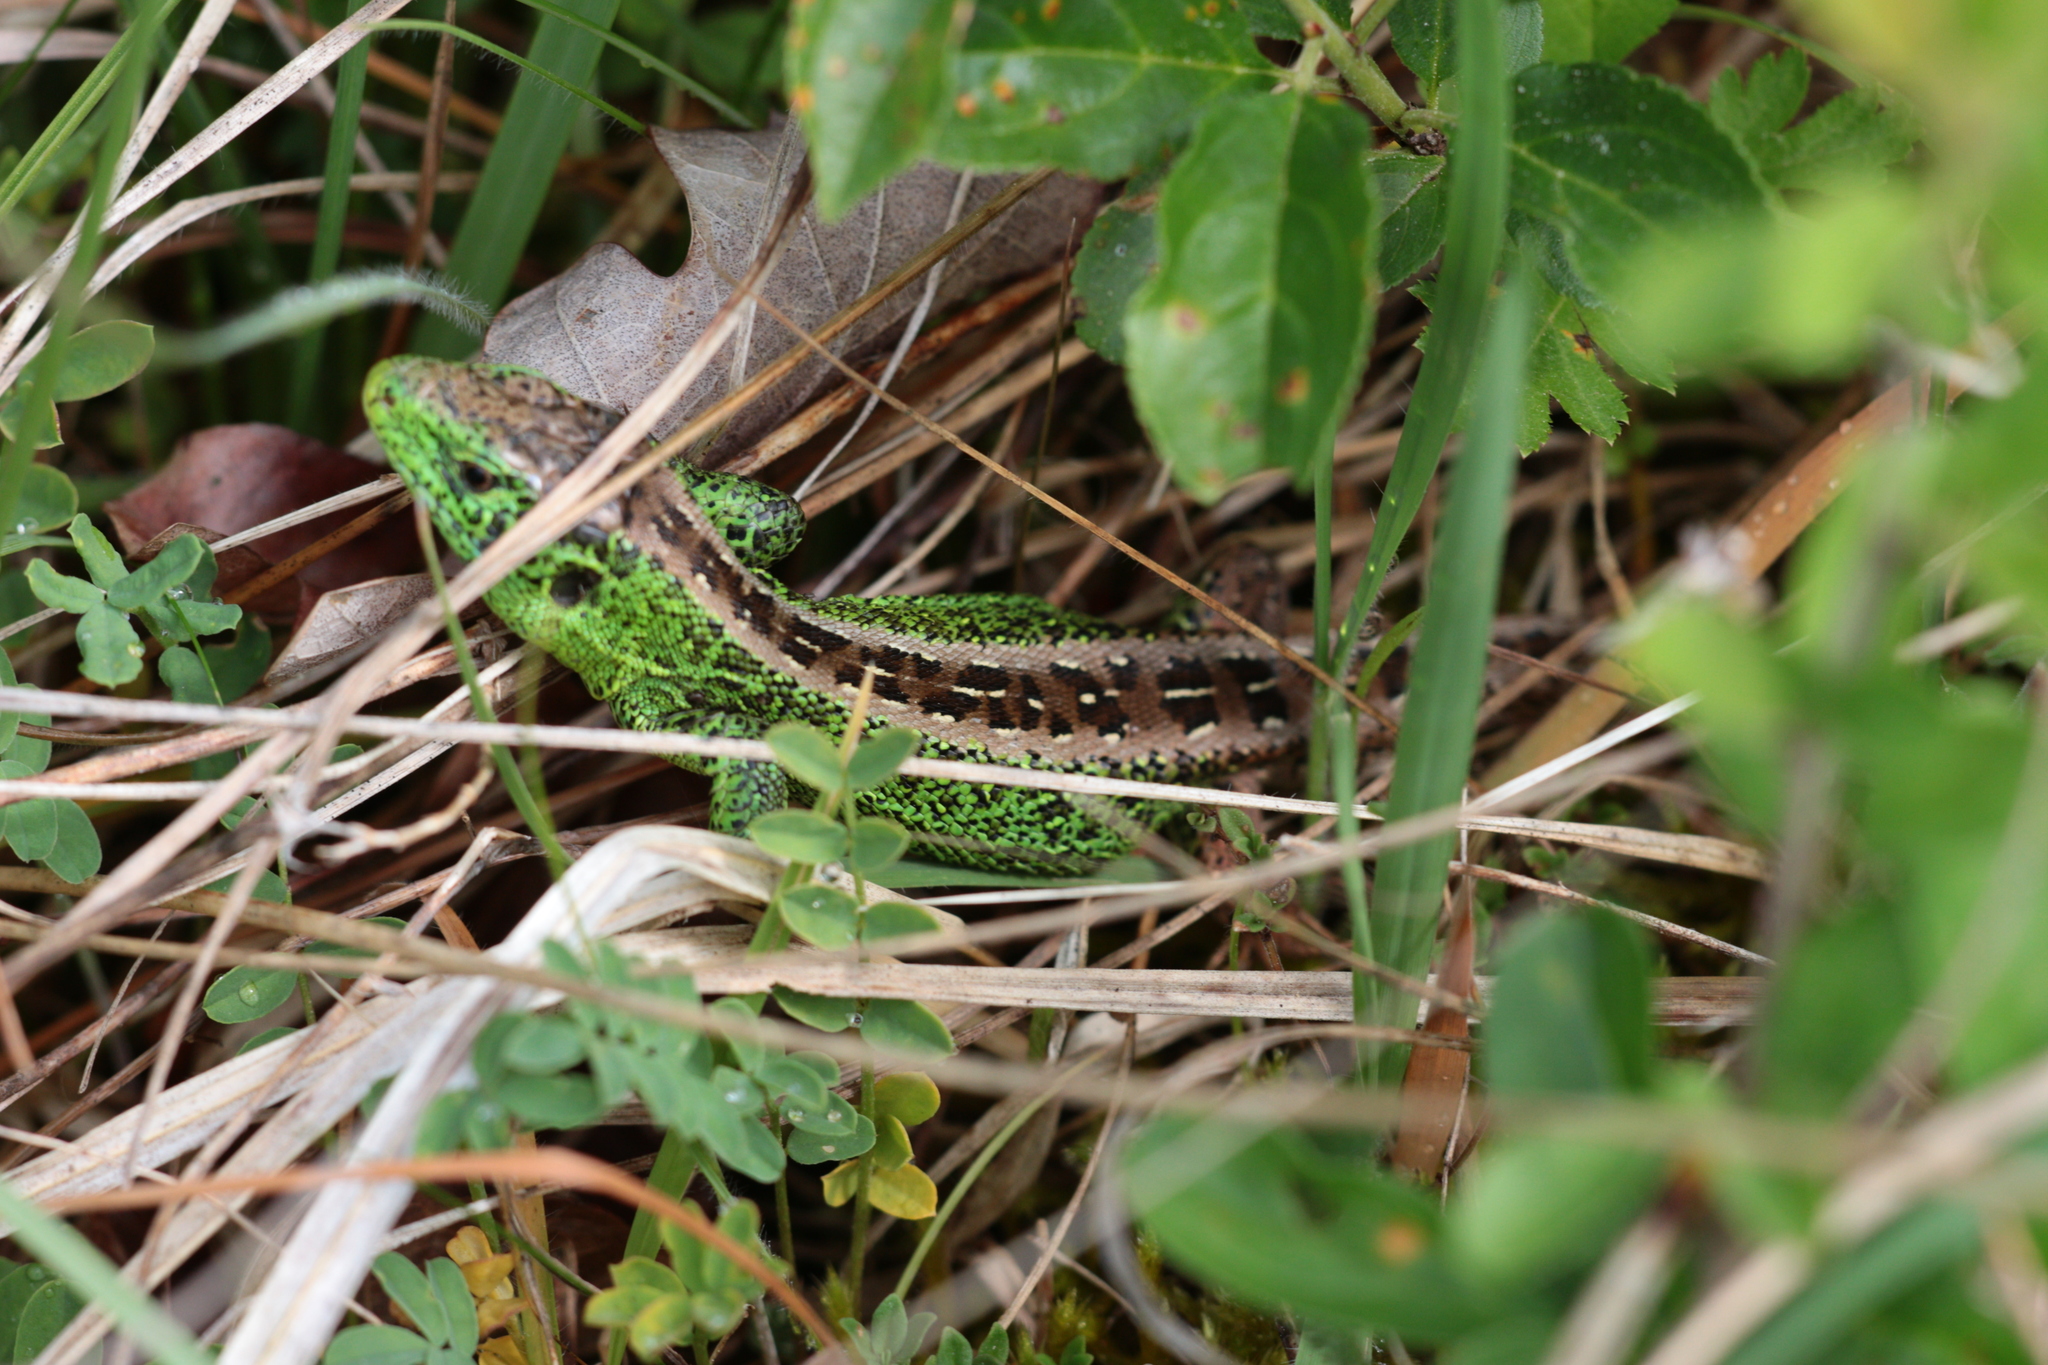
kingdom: Animalia
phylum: Chordata
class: Squamata
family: Lacertidae
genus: Lacerta
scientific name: Lacerta agilis
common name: Sand lizard
